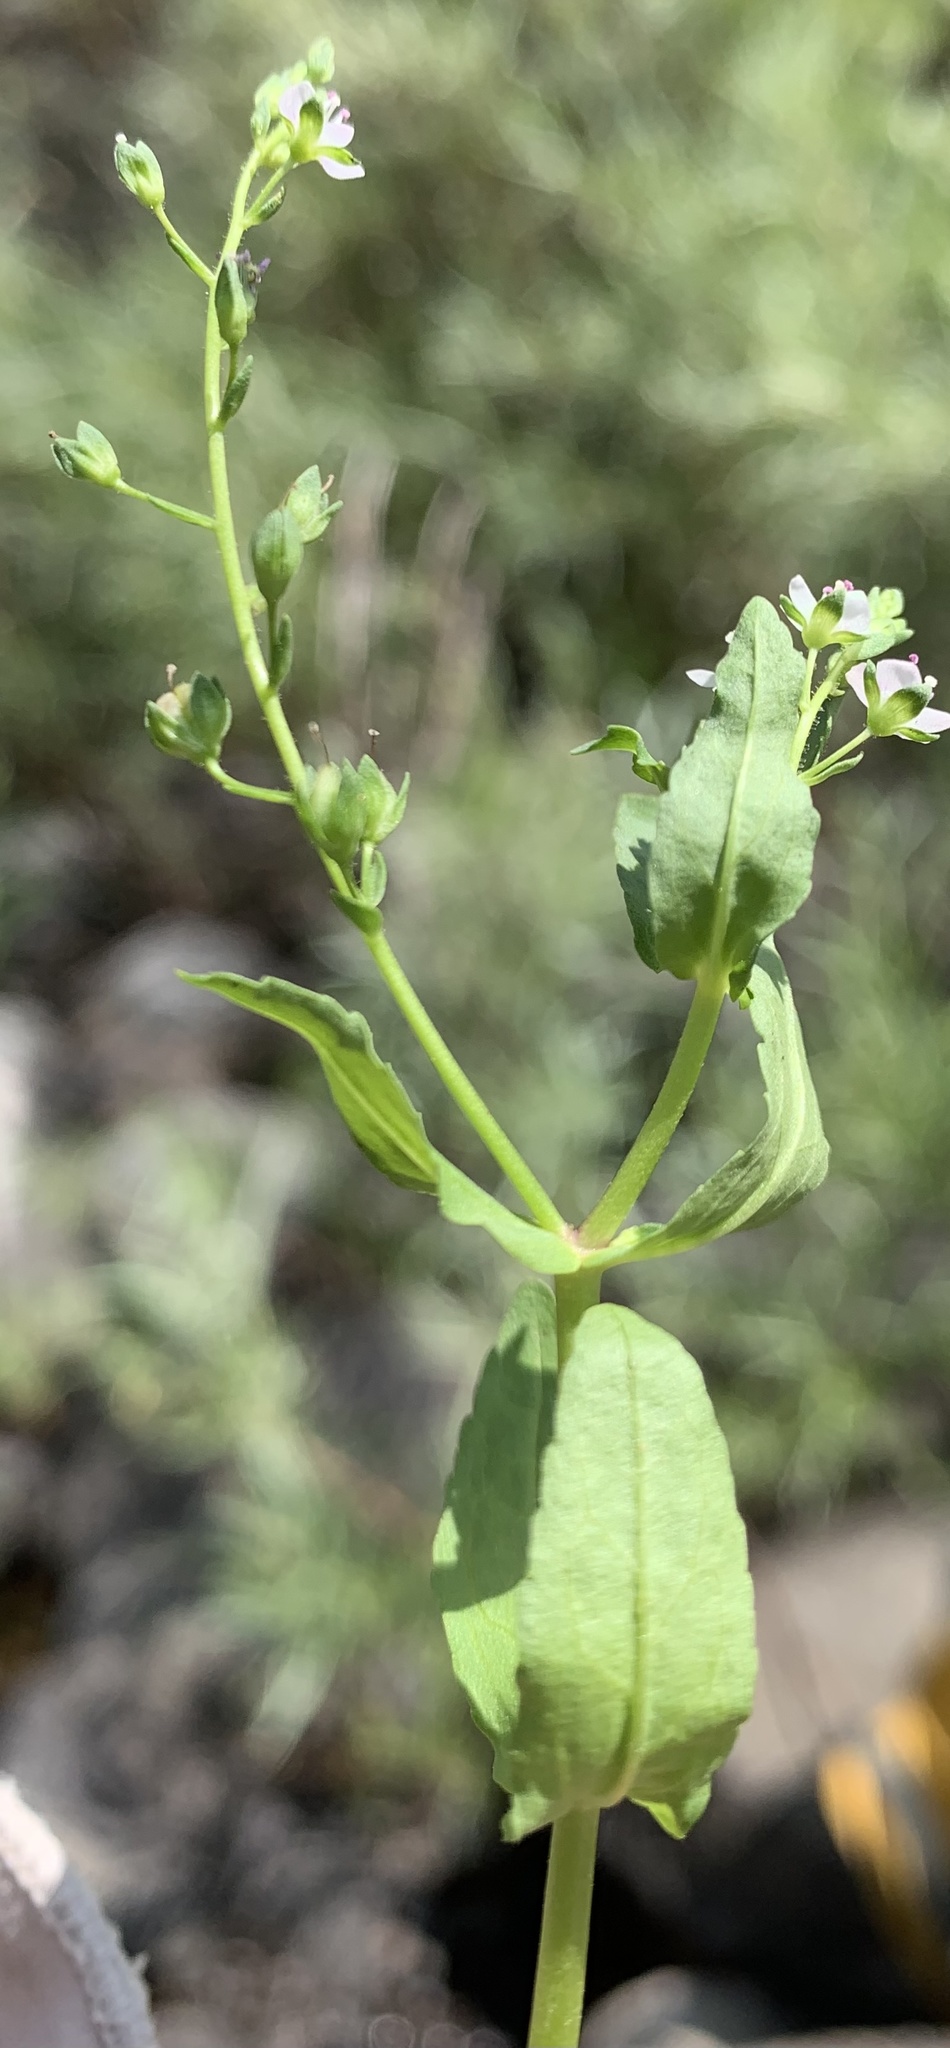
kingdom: Plantae
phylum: Tracheophyta
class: Magnoliopsida
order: Lamiales
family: Plantaginaceae
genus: Veronica
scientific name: Veronica catenata
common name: Pink water-speedwell
